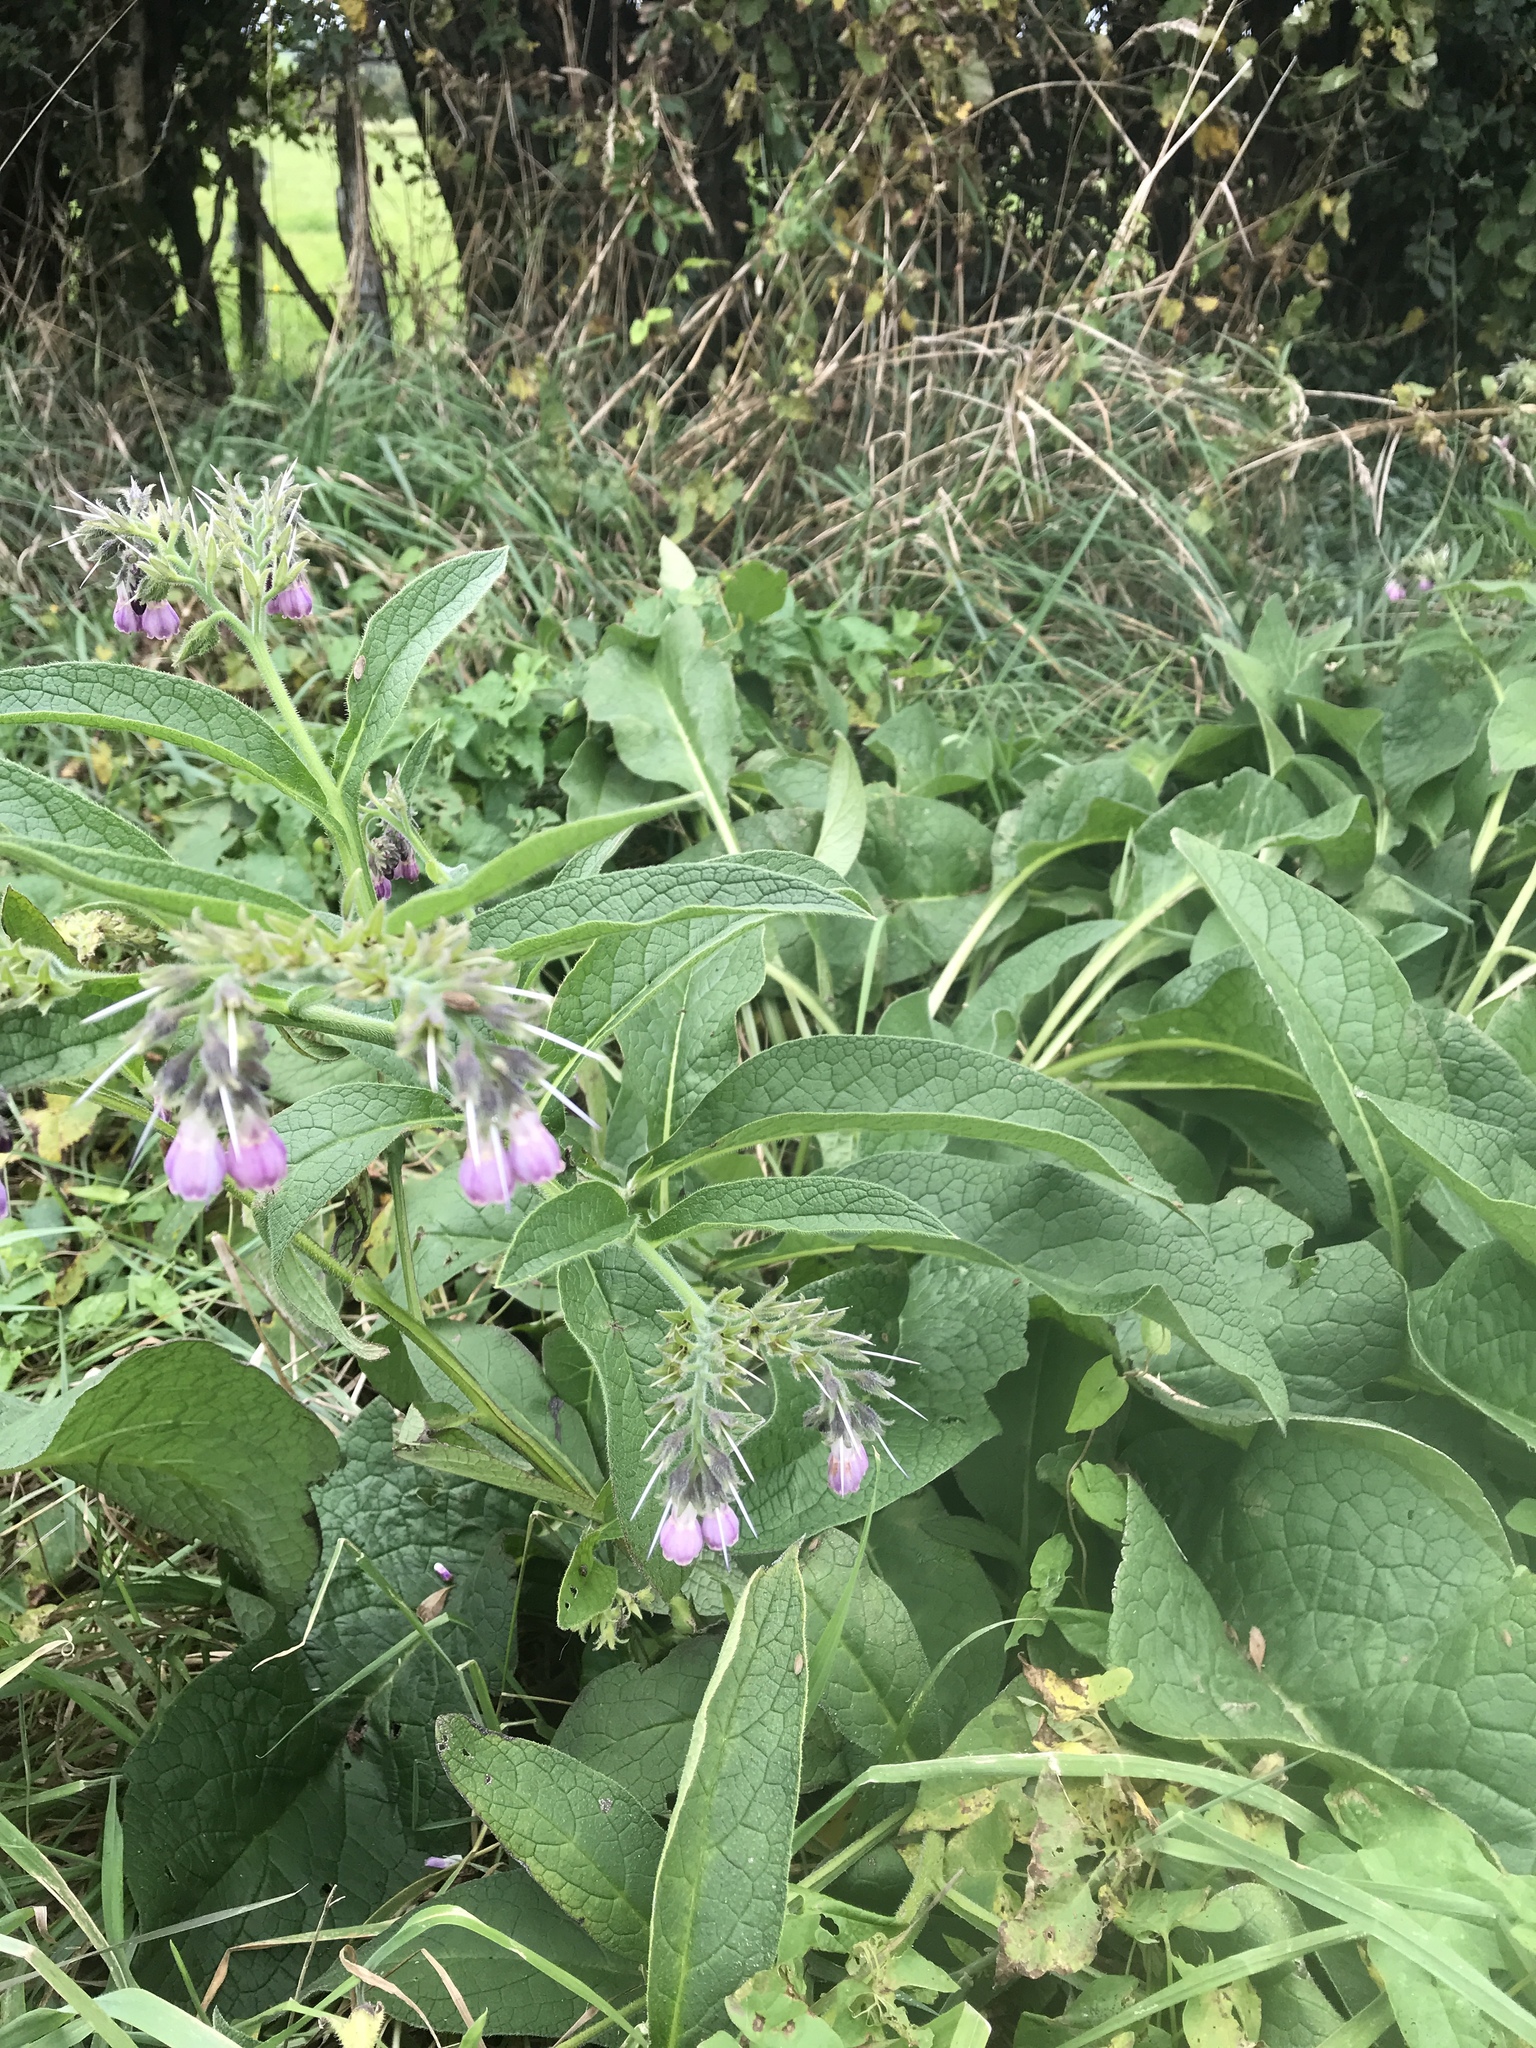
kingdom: Plantae
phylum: Tracheophyta
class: Magnoliopsida
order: Boraginales
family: Boraginaceae
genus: Symphytum
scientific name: Symphytum officinale
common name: Common comfrey
